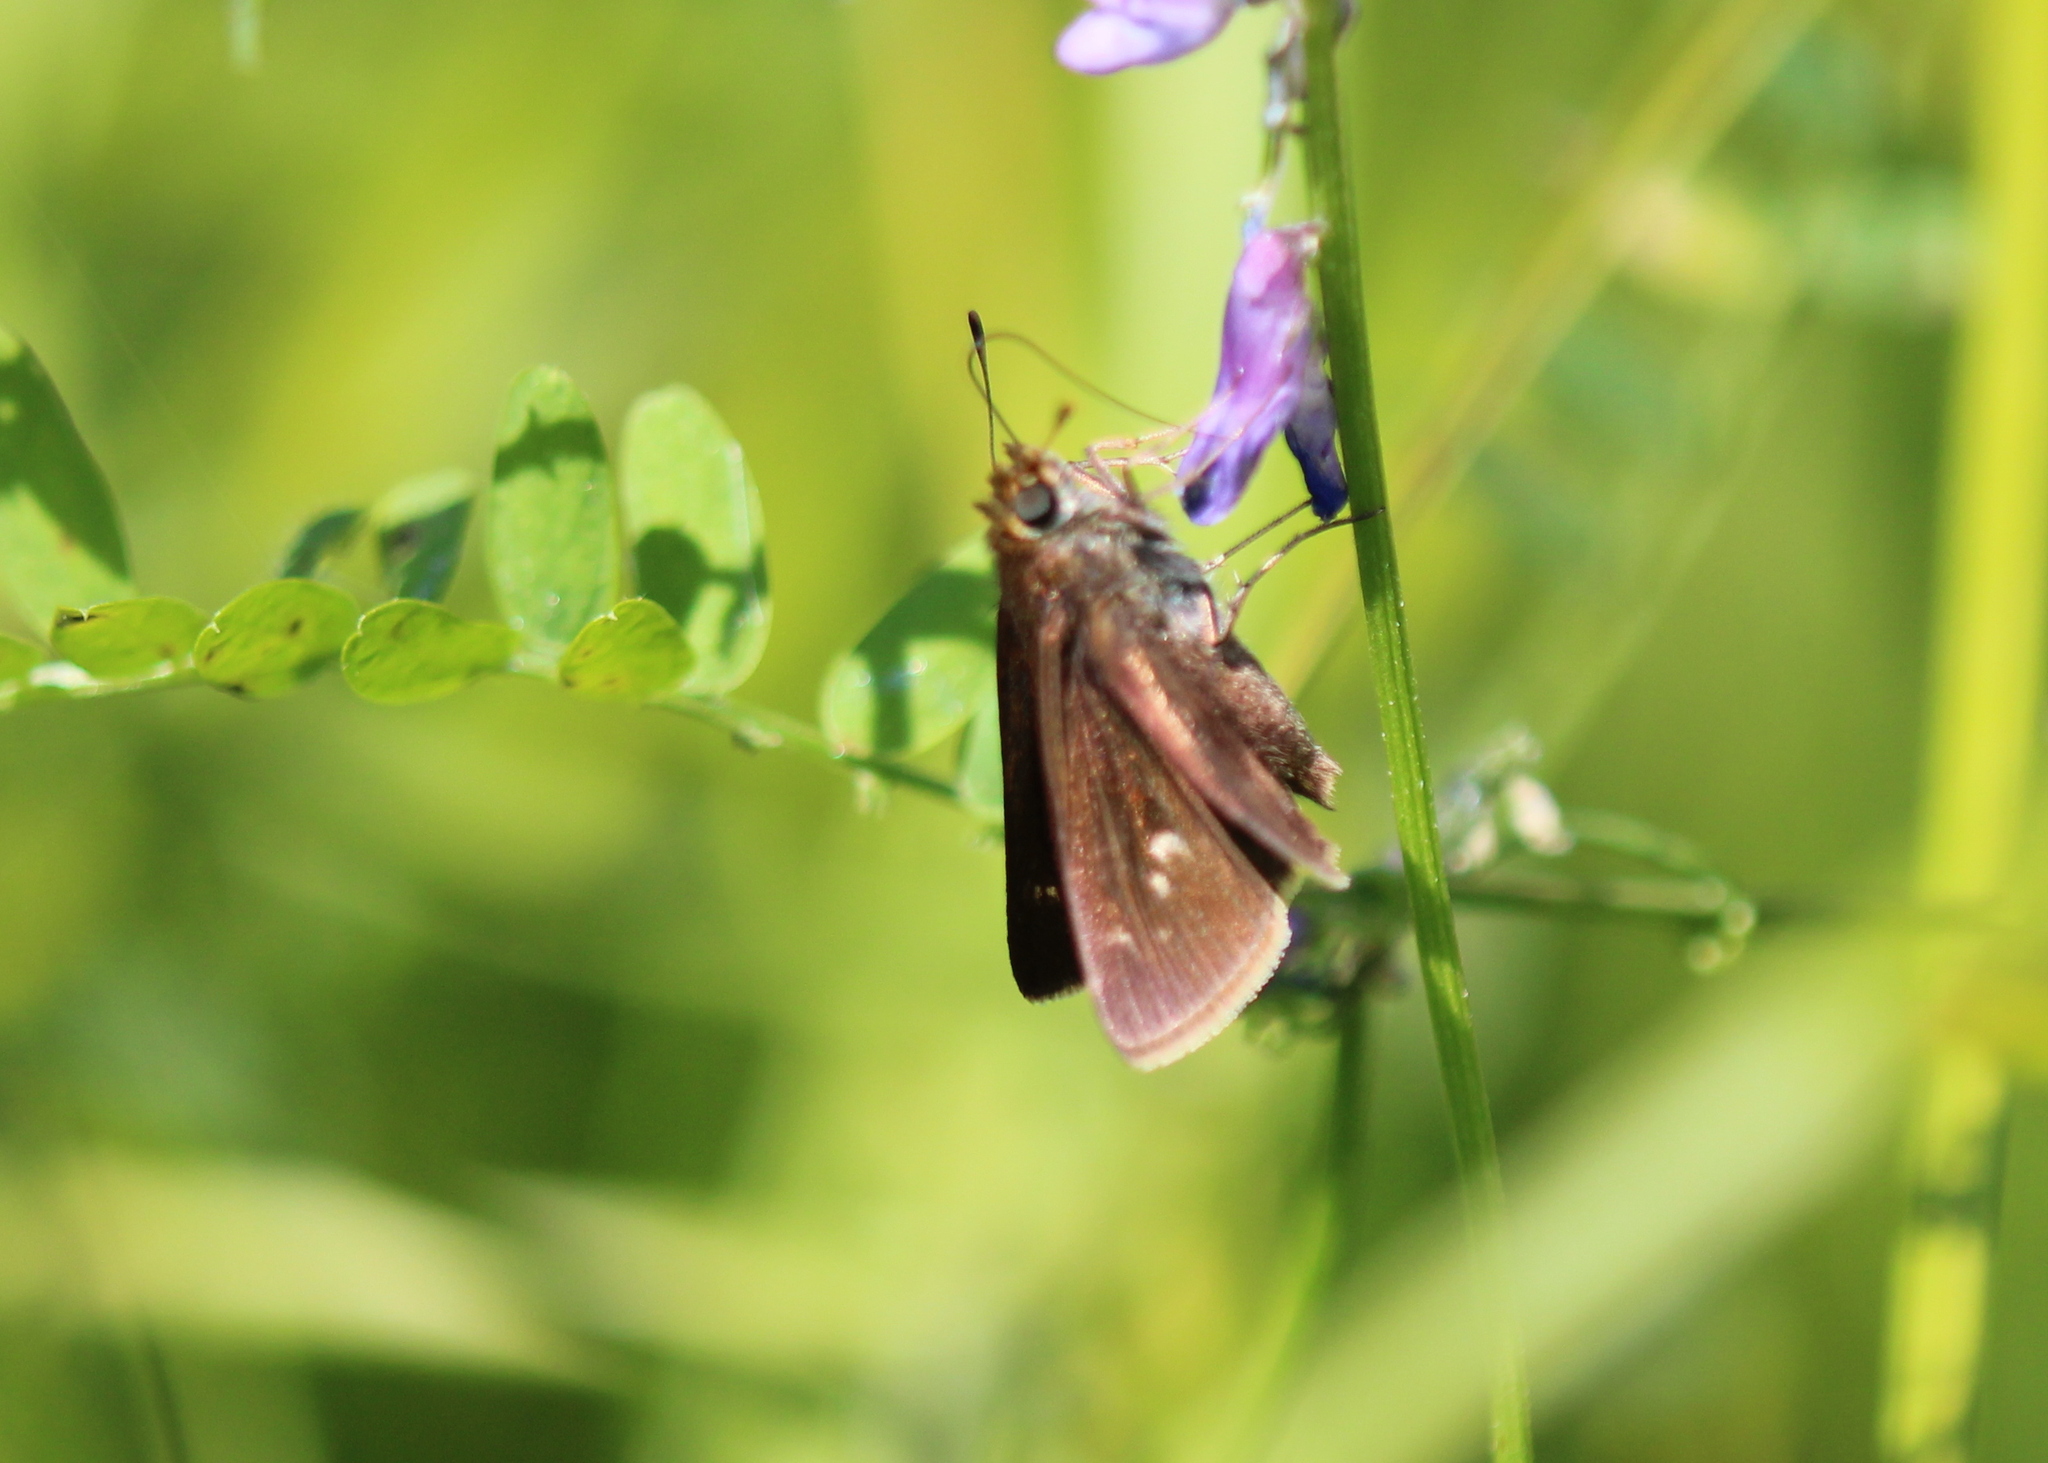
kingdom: Animalia
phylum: Arthropoda
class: Insecta
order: Lepidoptera
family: Hesperiidae
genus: Euphyes
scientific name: Euphyes vestris
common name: Dun skipper
